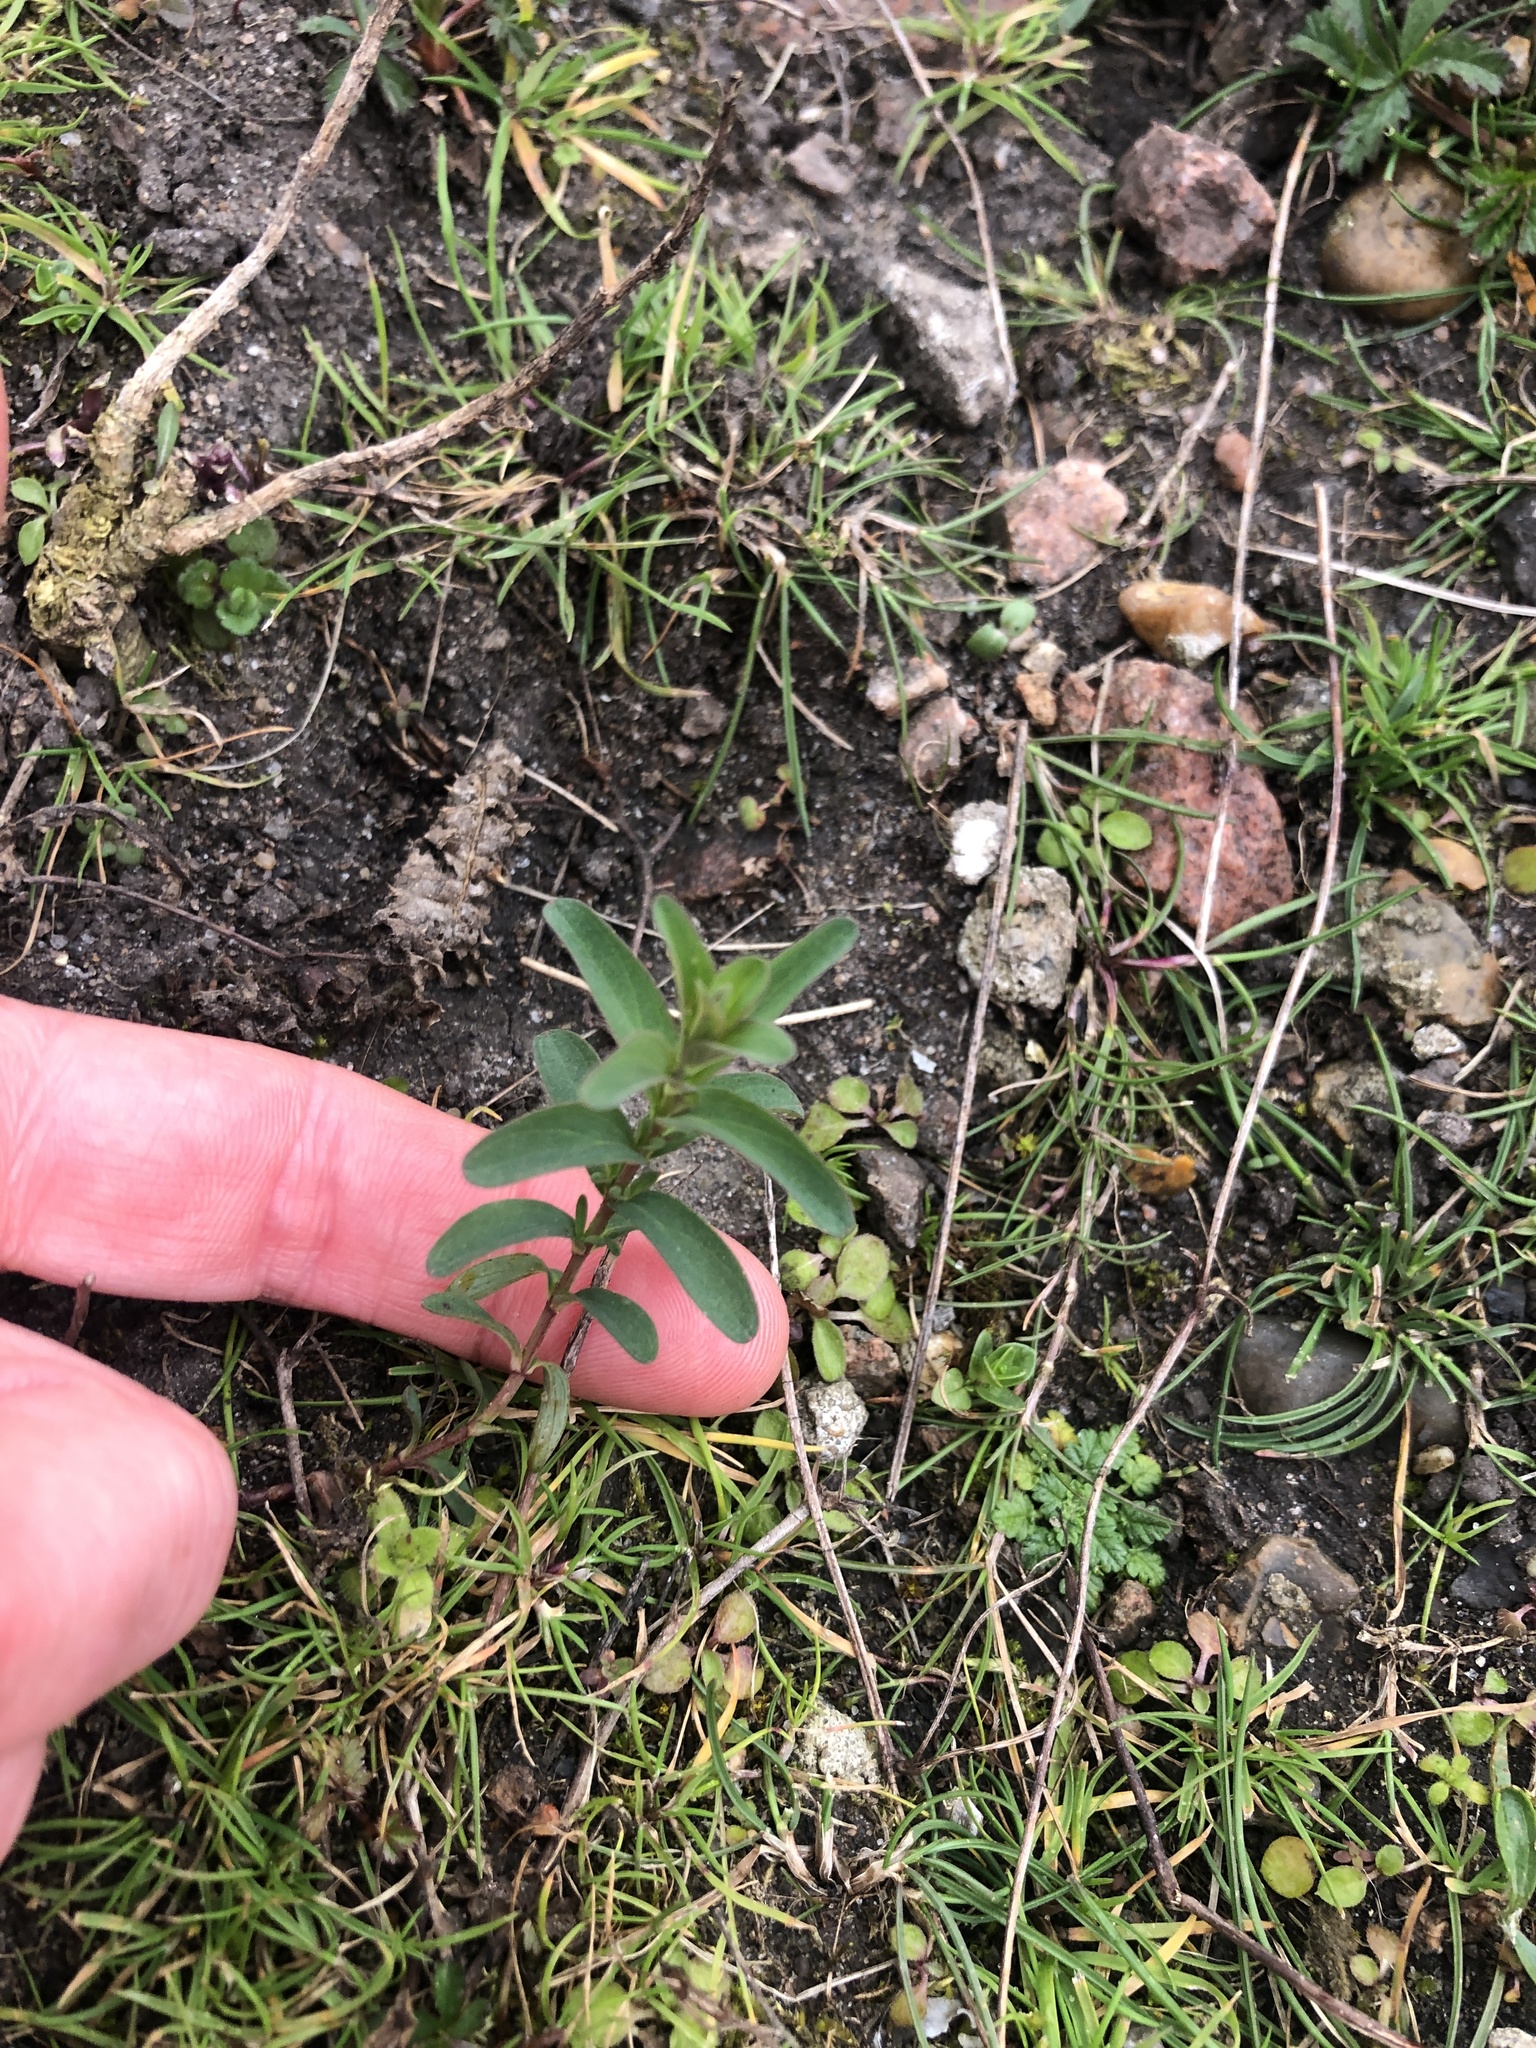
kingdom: Plantae
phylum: Tracheophyta
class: Magnoliopsida
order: Malpighiales
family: Hypericaceae
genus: Hypericum
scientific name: Hypericum perforatum
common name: Common st. johnswort
